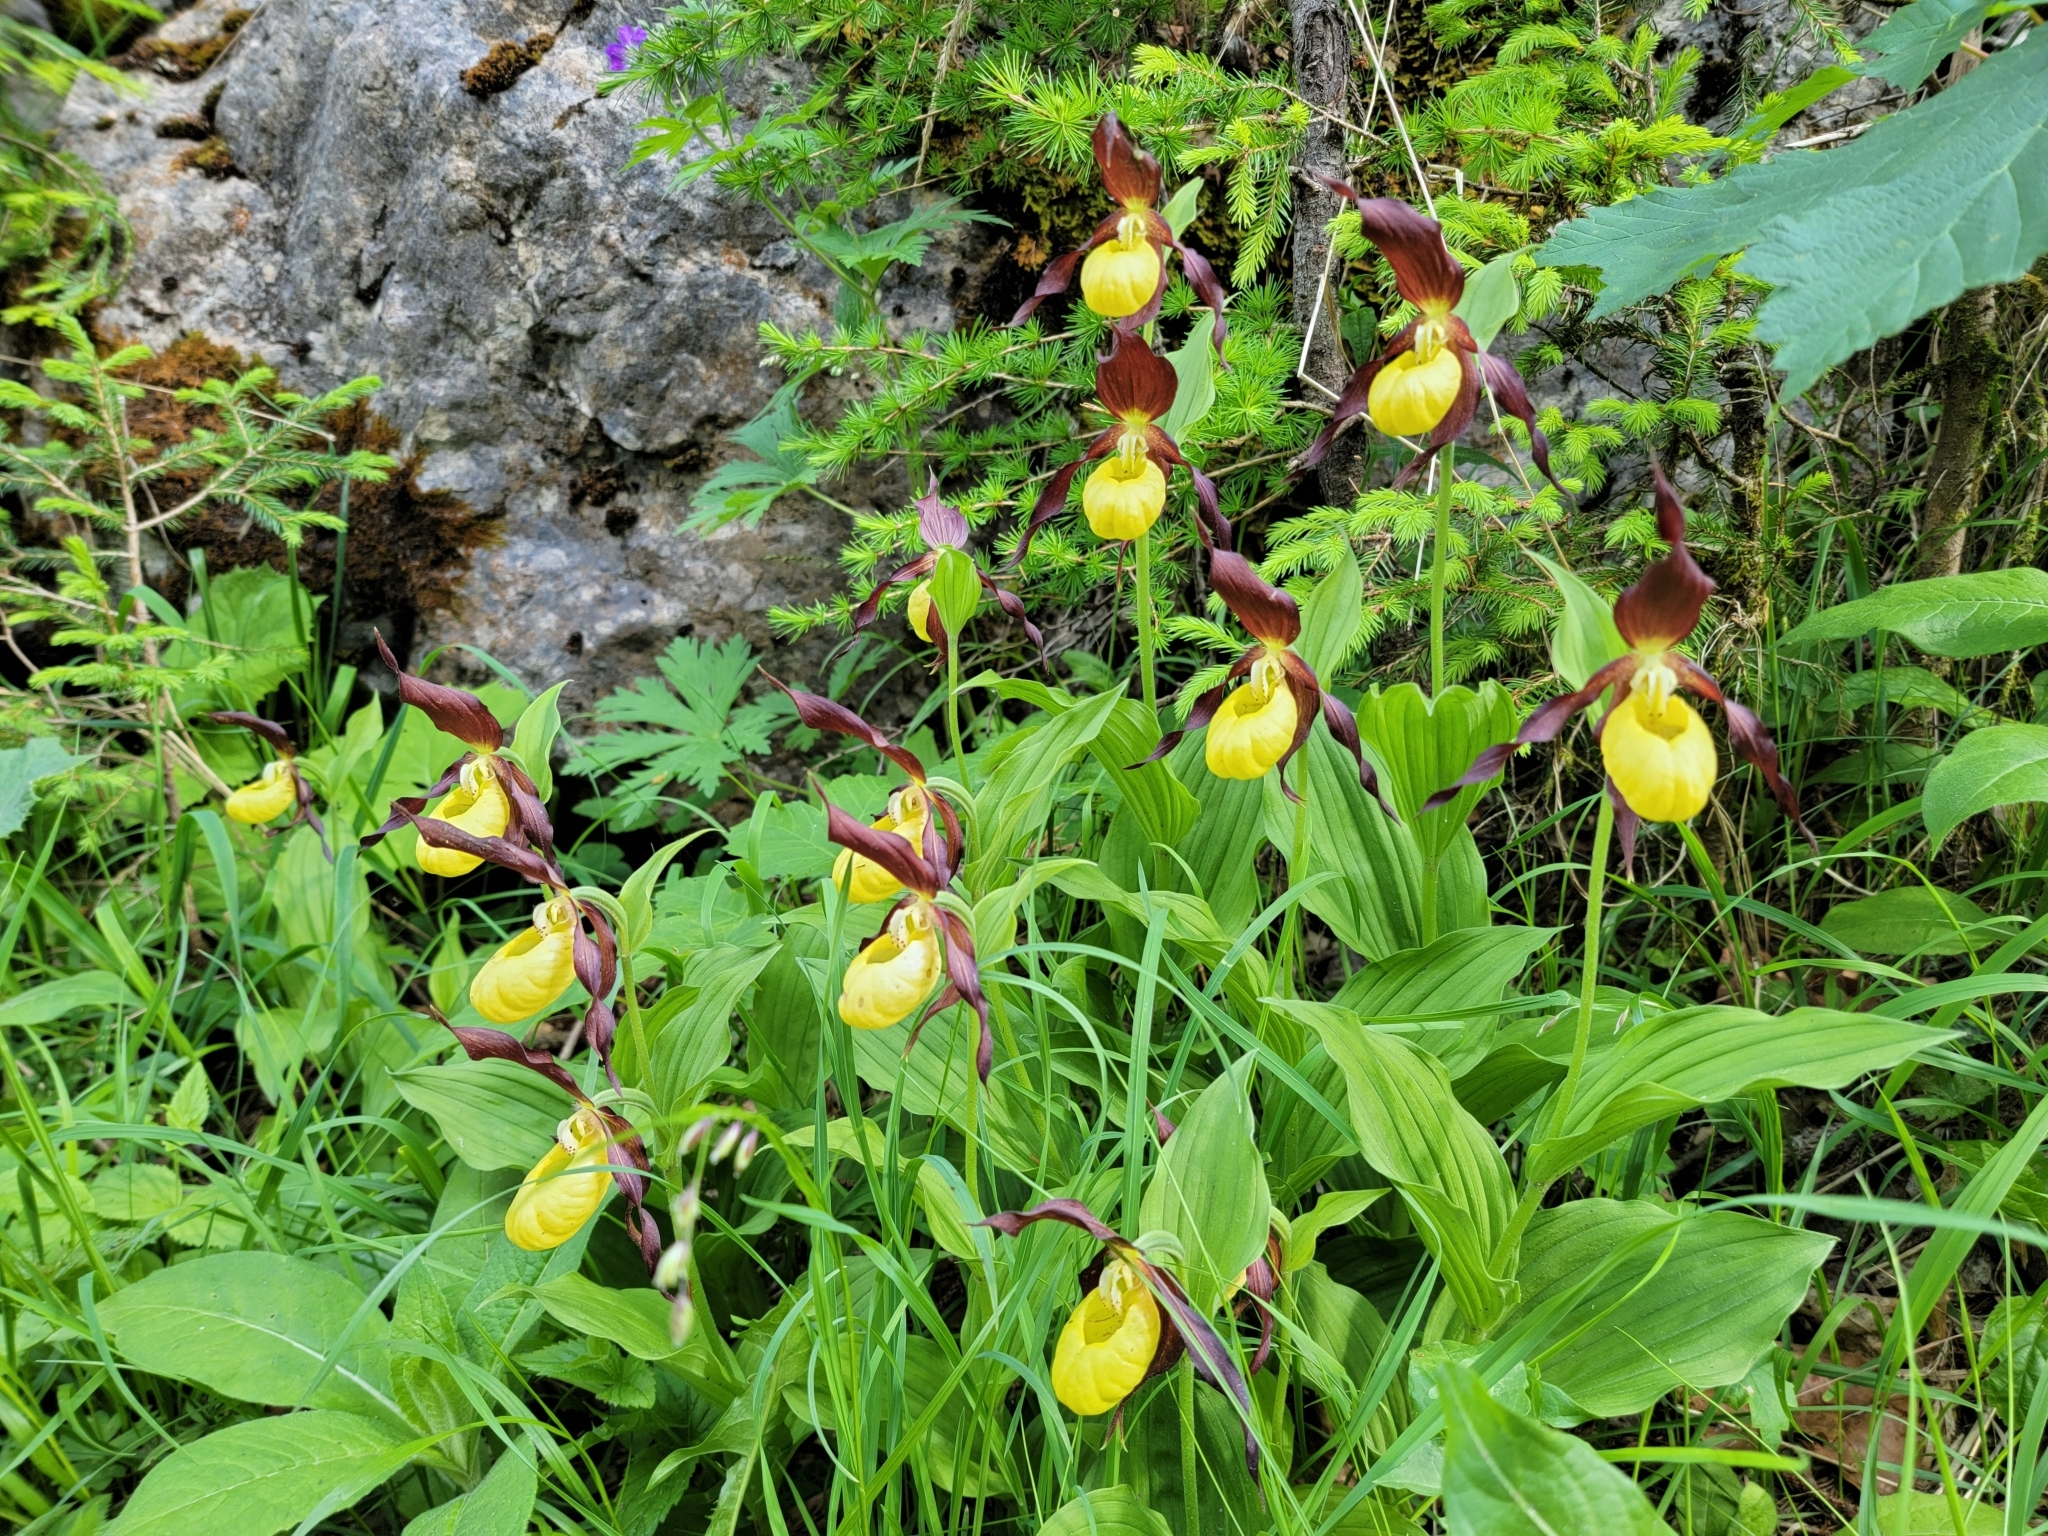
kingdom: Plantae
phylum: Tracheophyta
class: Liliopsida
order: Asparagales
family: Orchidaceae
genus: Cypripedium
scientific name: Cypripedium calceolus
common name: Lady's-slipper
